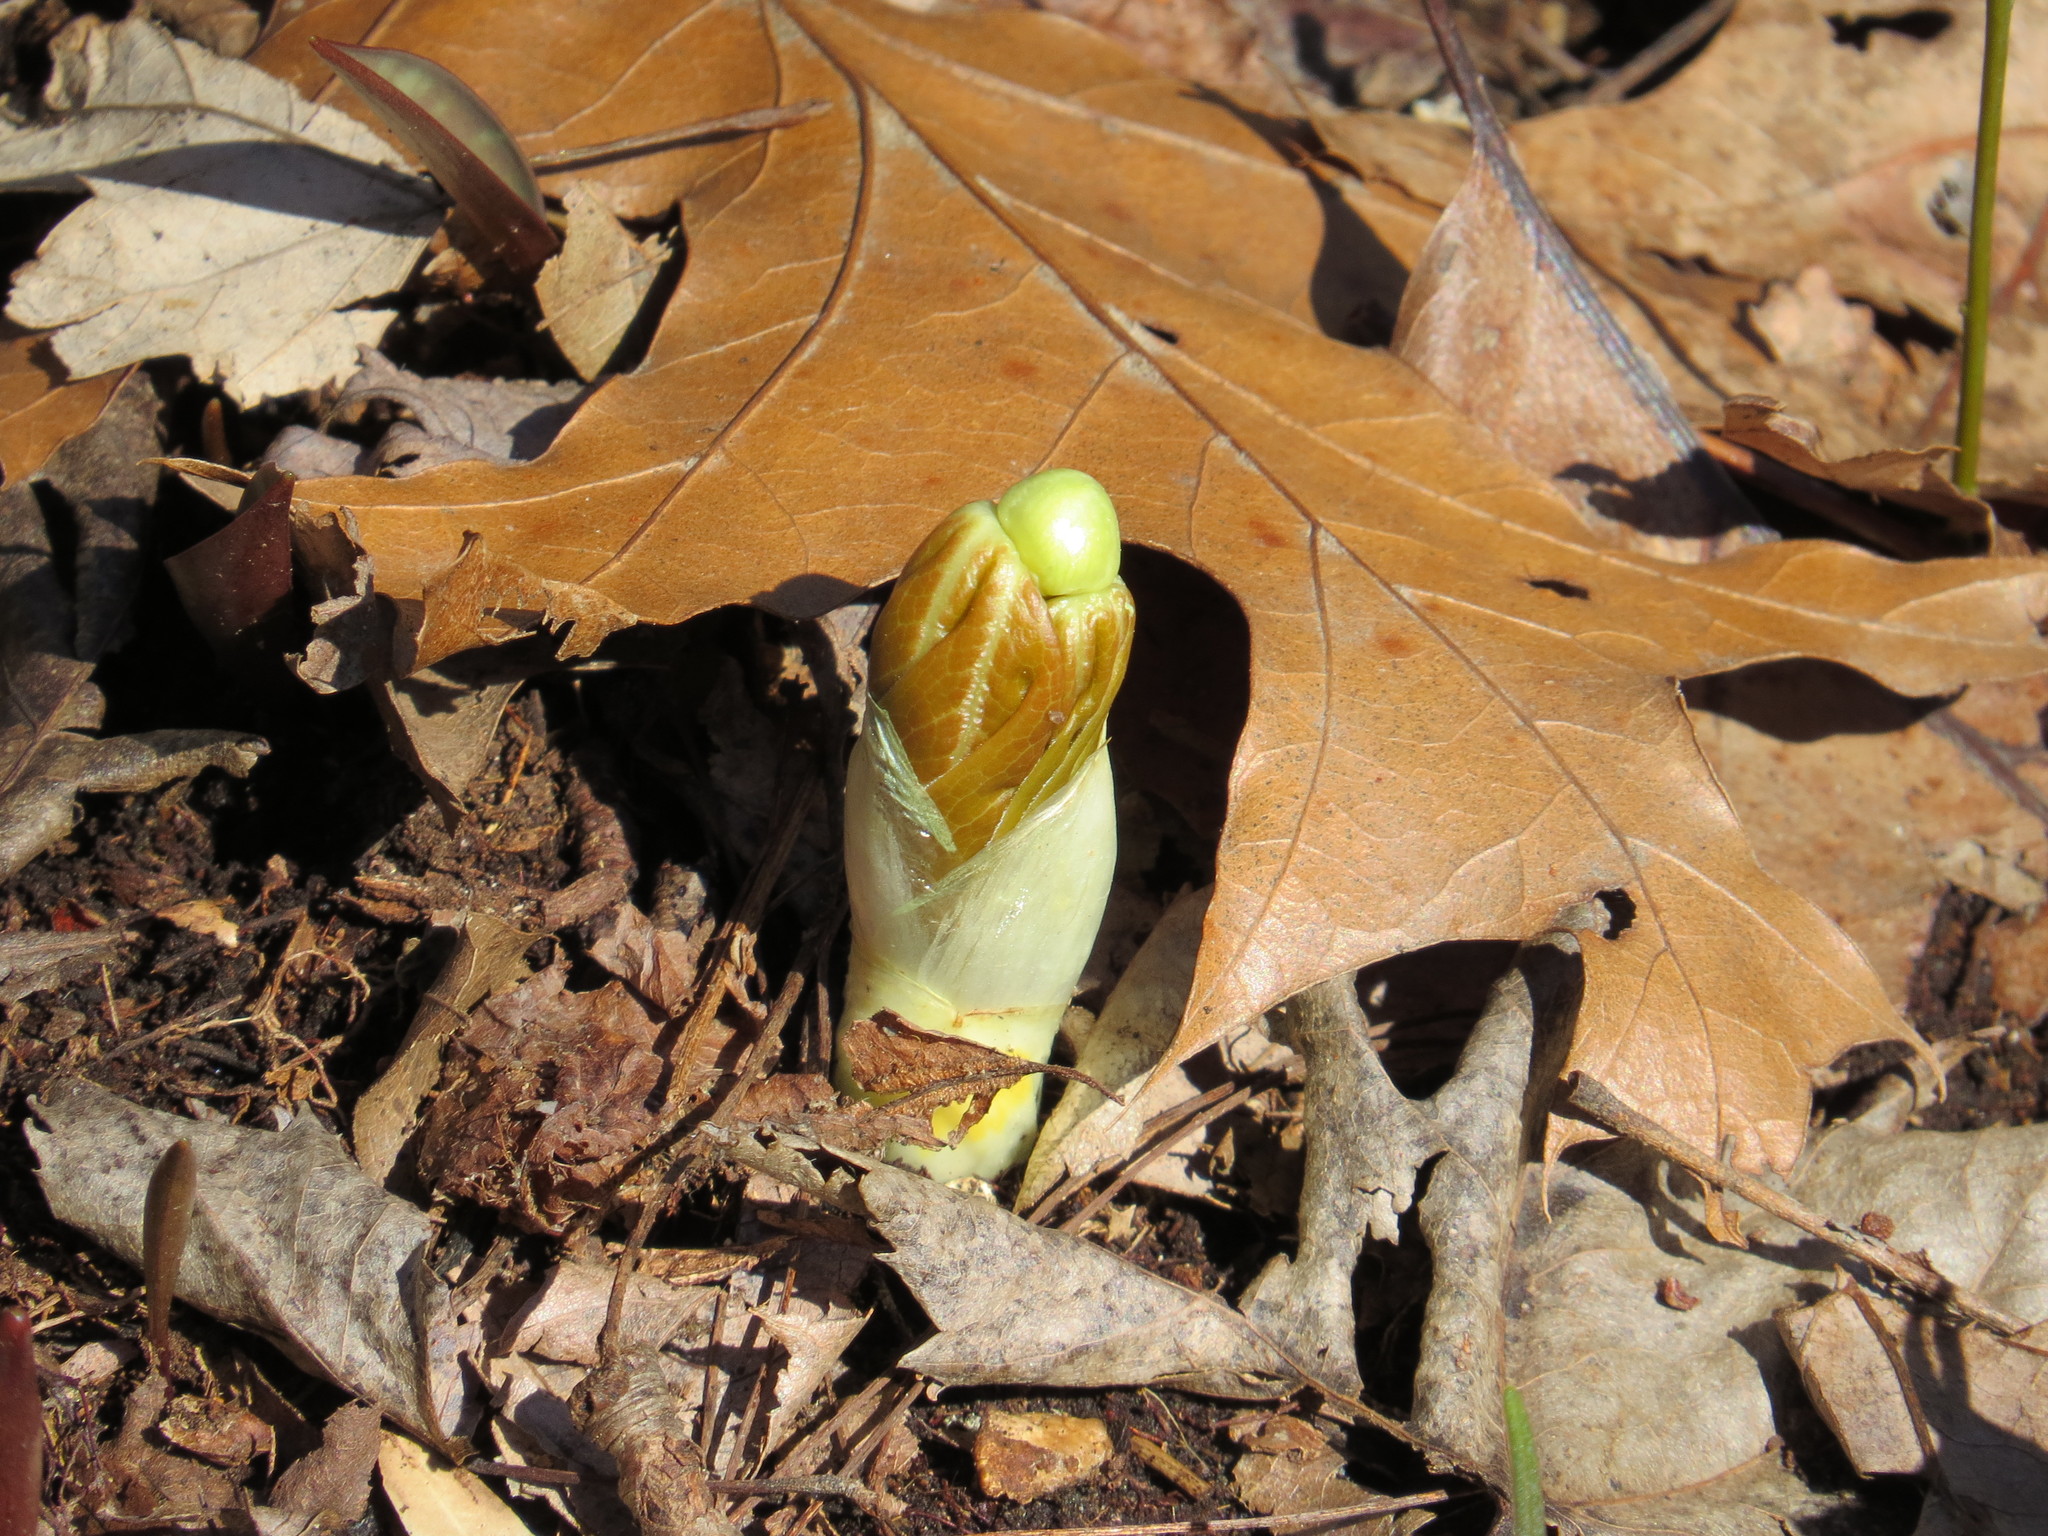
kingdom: Plantae
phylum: Tracheophyta
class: Magnoliopsida
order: Ranunculales
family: Berberidaceae
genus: Podophyllum
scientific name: Podophyllum peltatum
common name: Wild mandrake
